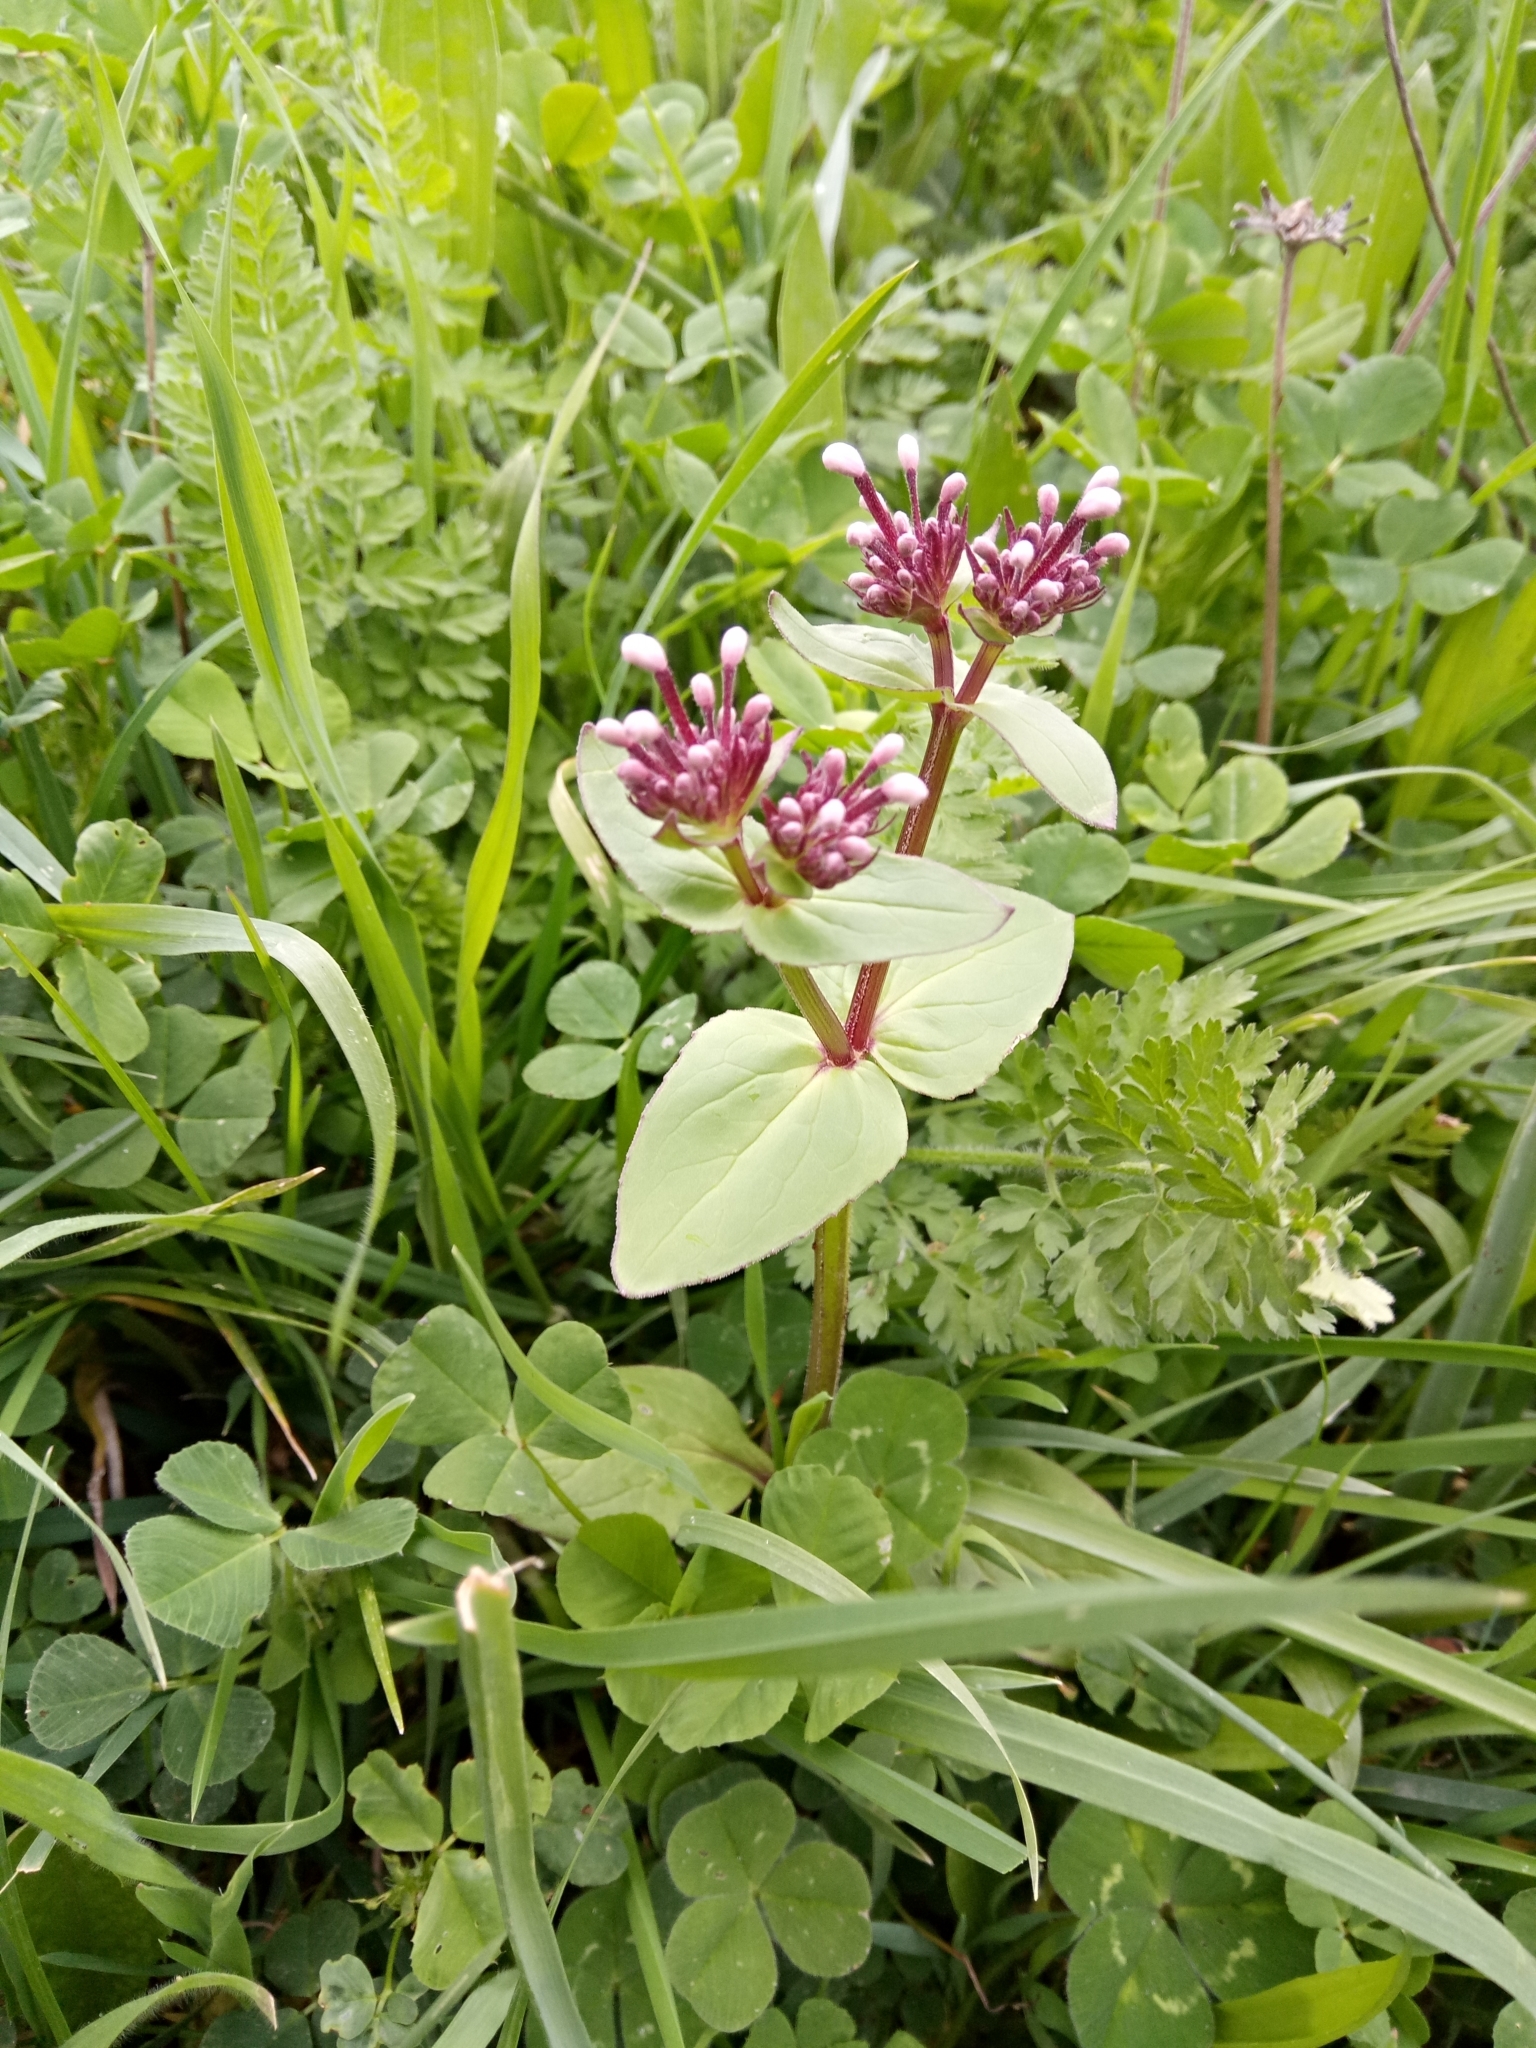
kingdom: Plantae
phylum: Tracheophyta
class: Magnoliopsida
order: Dipsacales
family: Caprifoliaceae
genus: Fedia
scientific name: Fedia graciliflora
